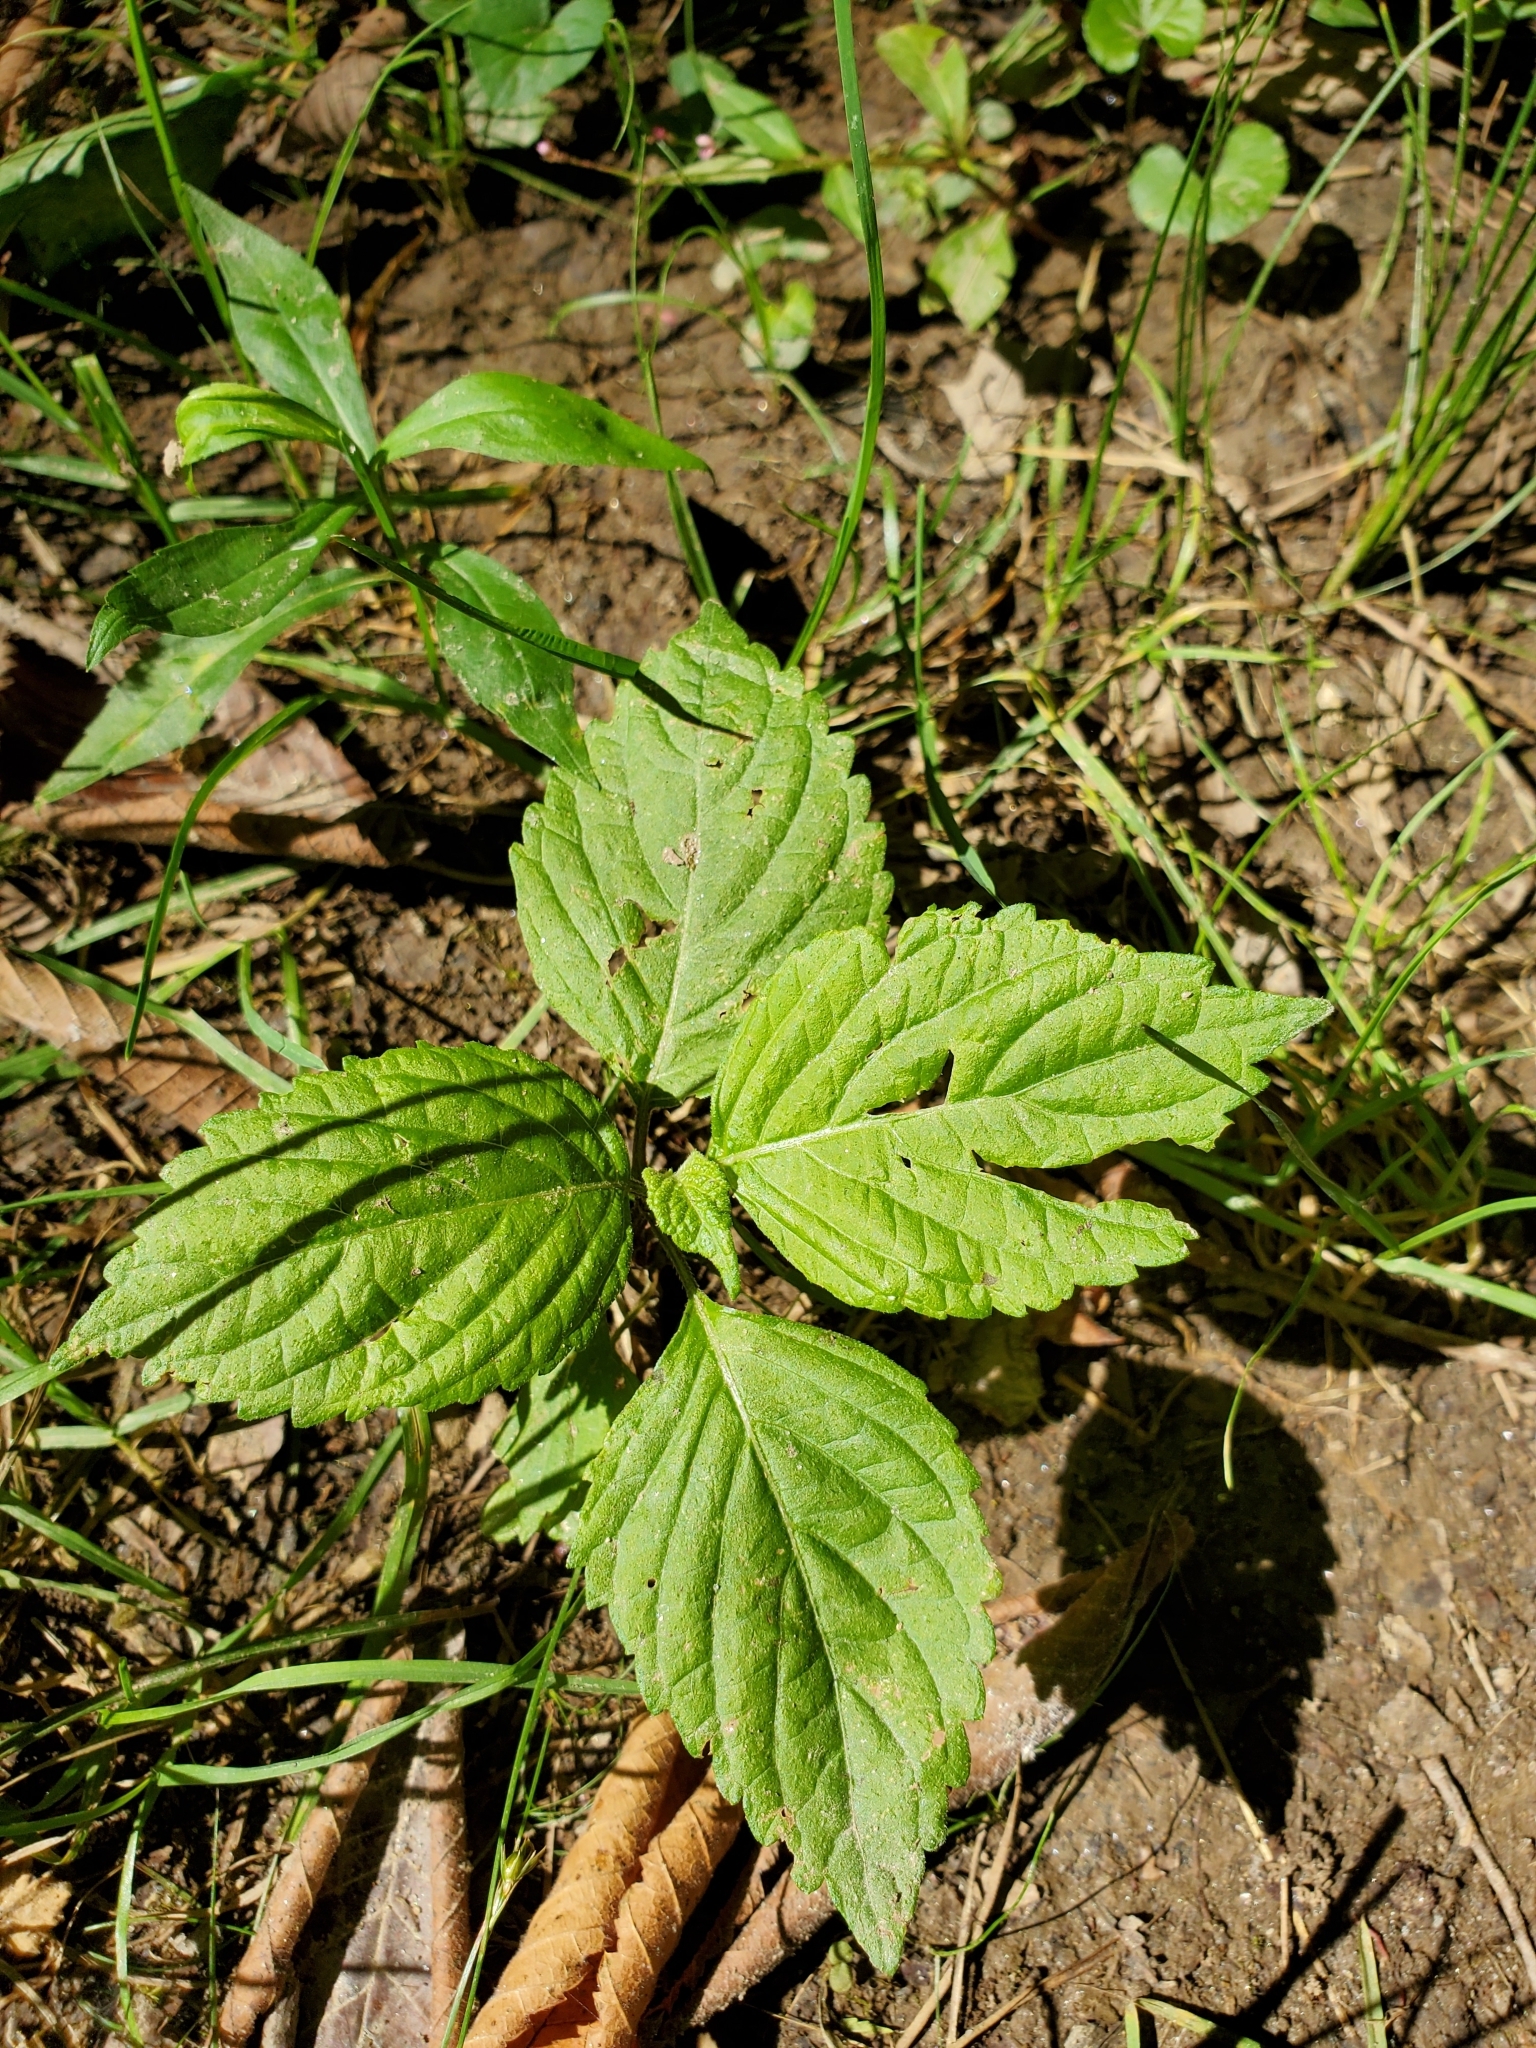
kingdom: Plantae
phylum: Tracheophyta
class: Magnoliopsida
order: Lamiales
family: Lamiaceae
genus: Perilla
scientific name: Perilla frutescens
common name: Perilla
